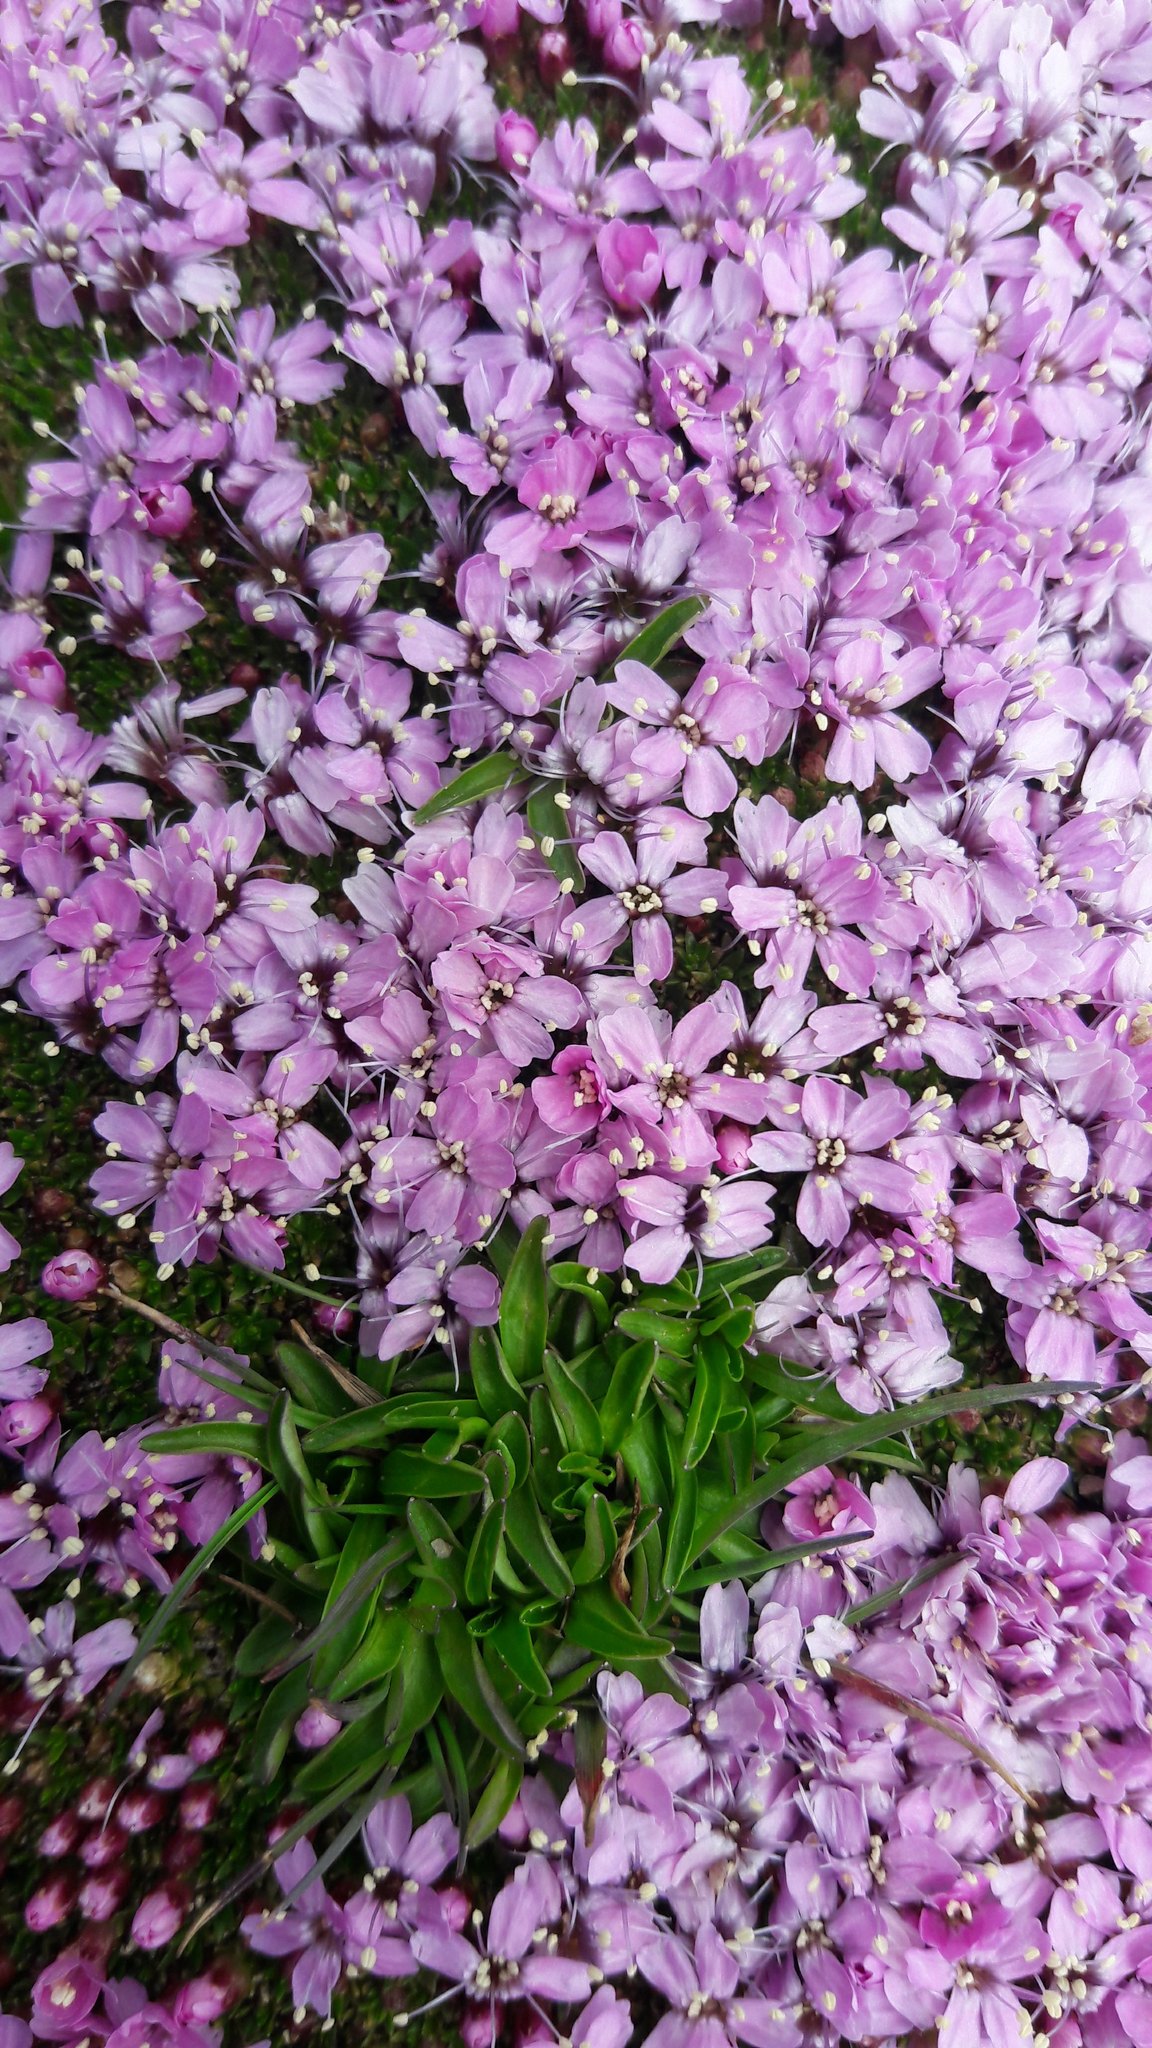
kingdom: Plantae
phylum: Tracheophyta
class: Magnoliopsida
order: Caryophyllales
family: Caryophyllaceae
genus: Silene
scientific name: Silene acaulis
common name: Moss campion
